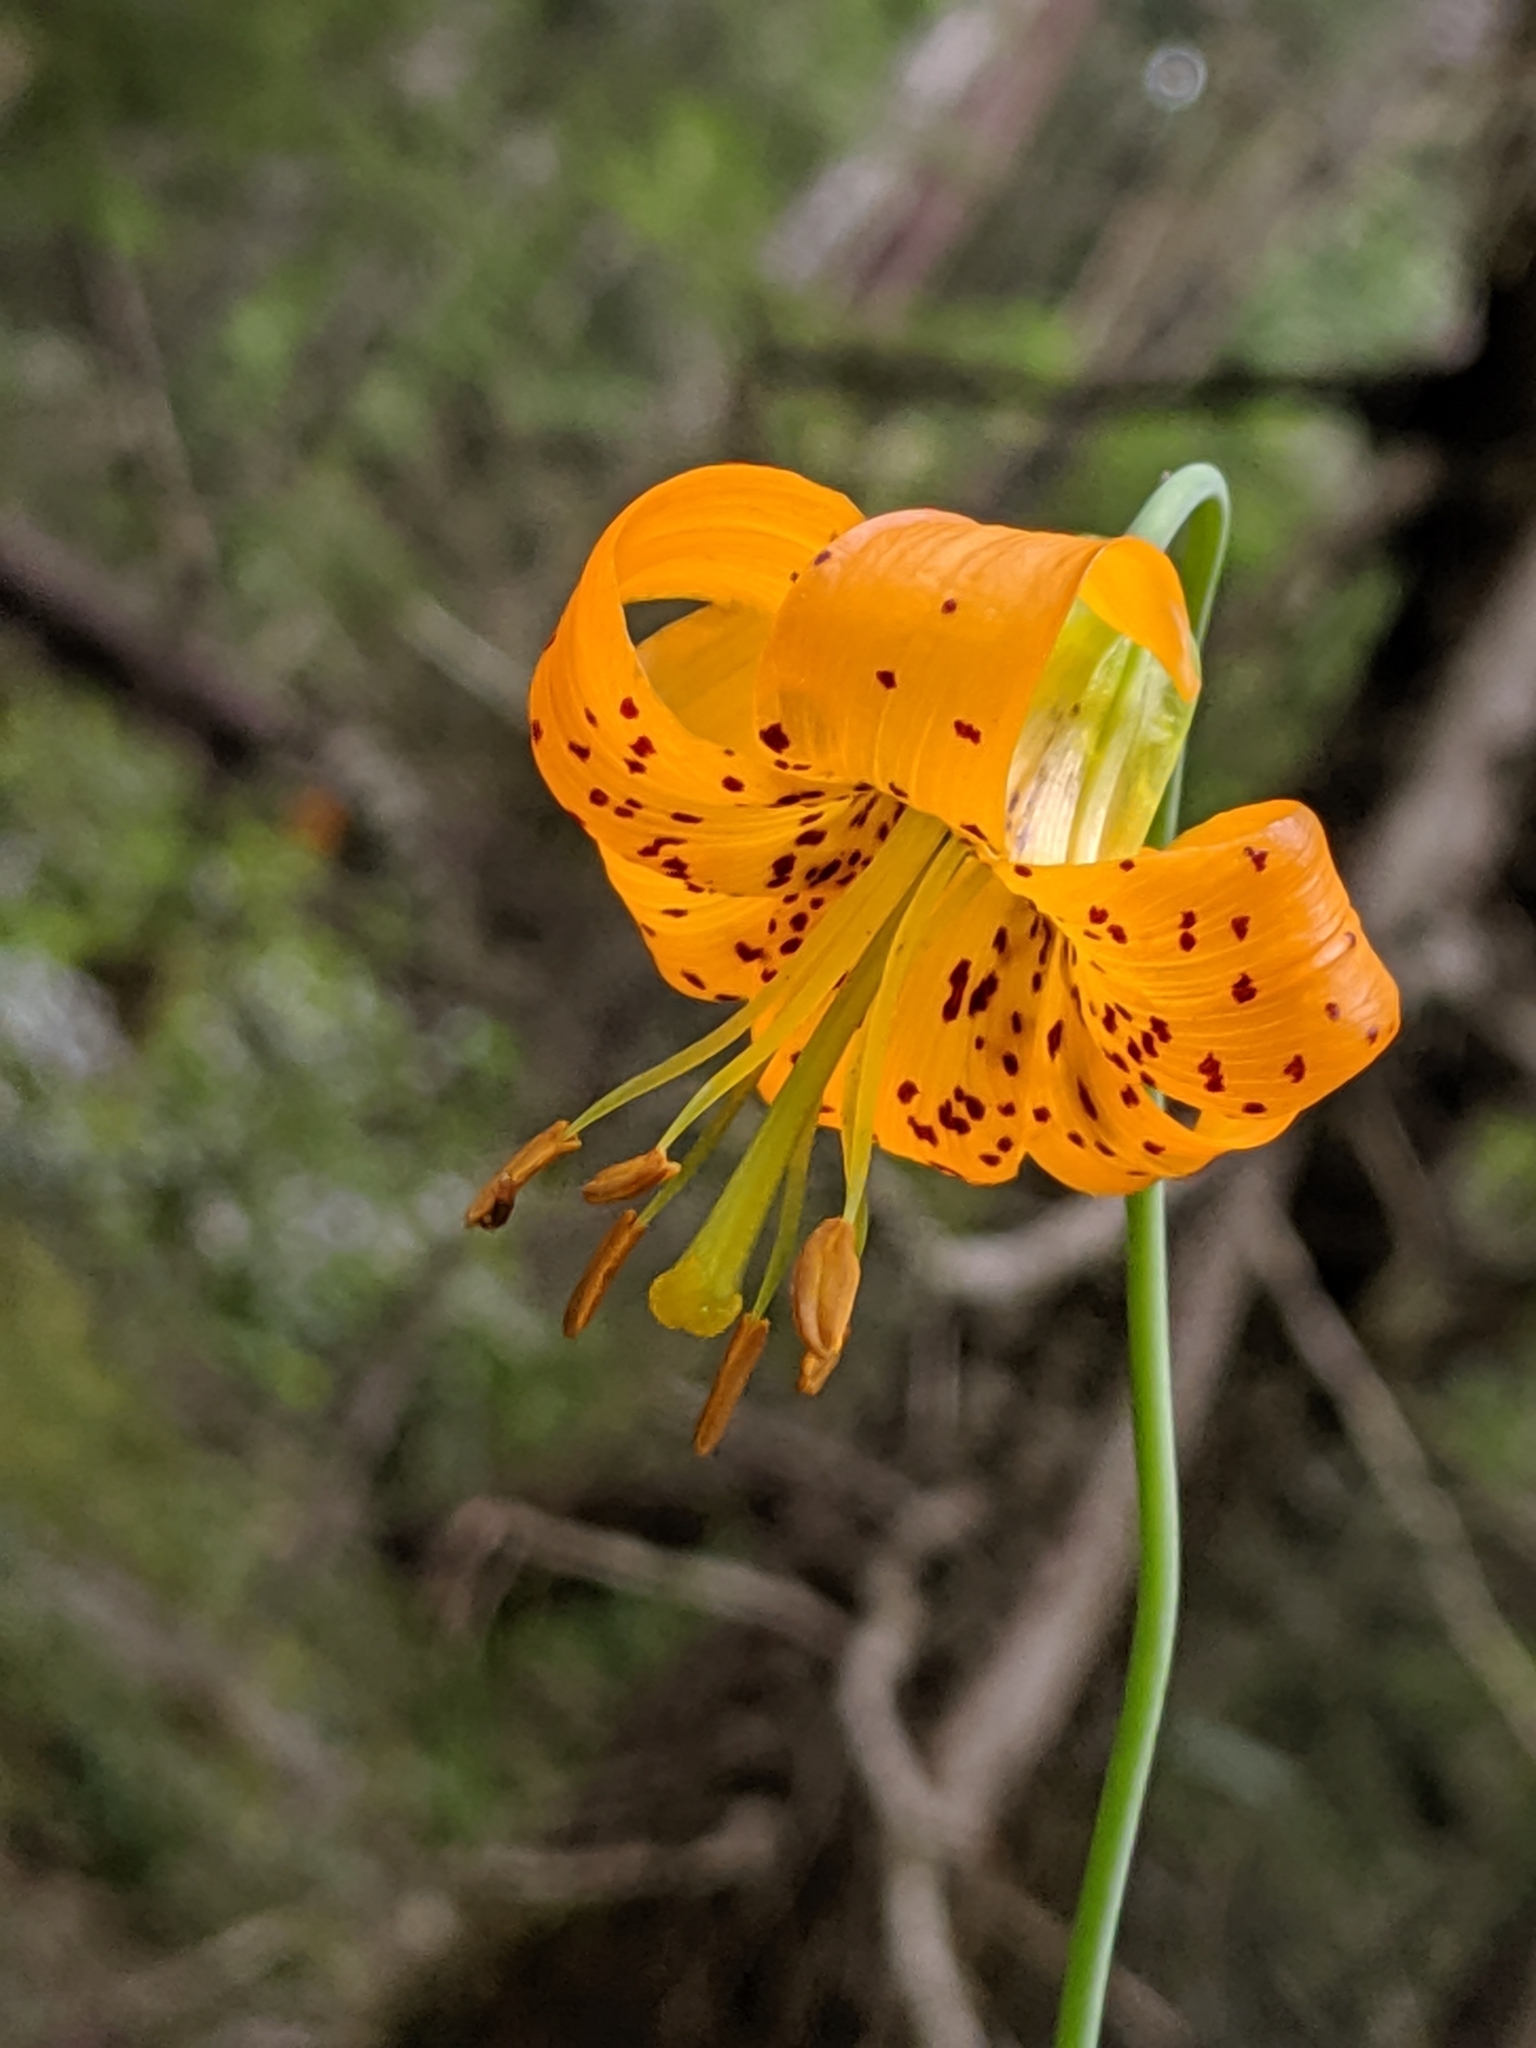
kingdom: Plantae
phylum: Tracheophyta
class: Liliopsida
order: Liliales
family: Liliaceae
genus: Lilium
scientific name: Lilium columbianum
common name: Columbia lily
